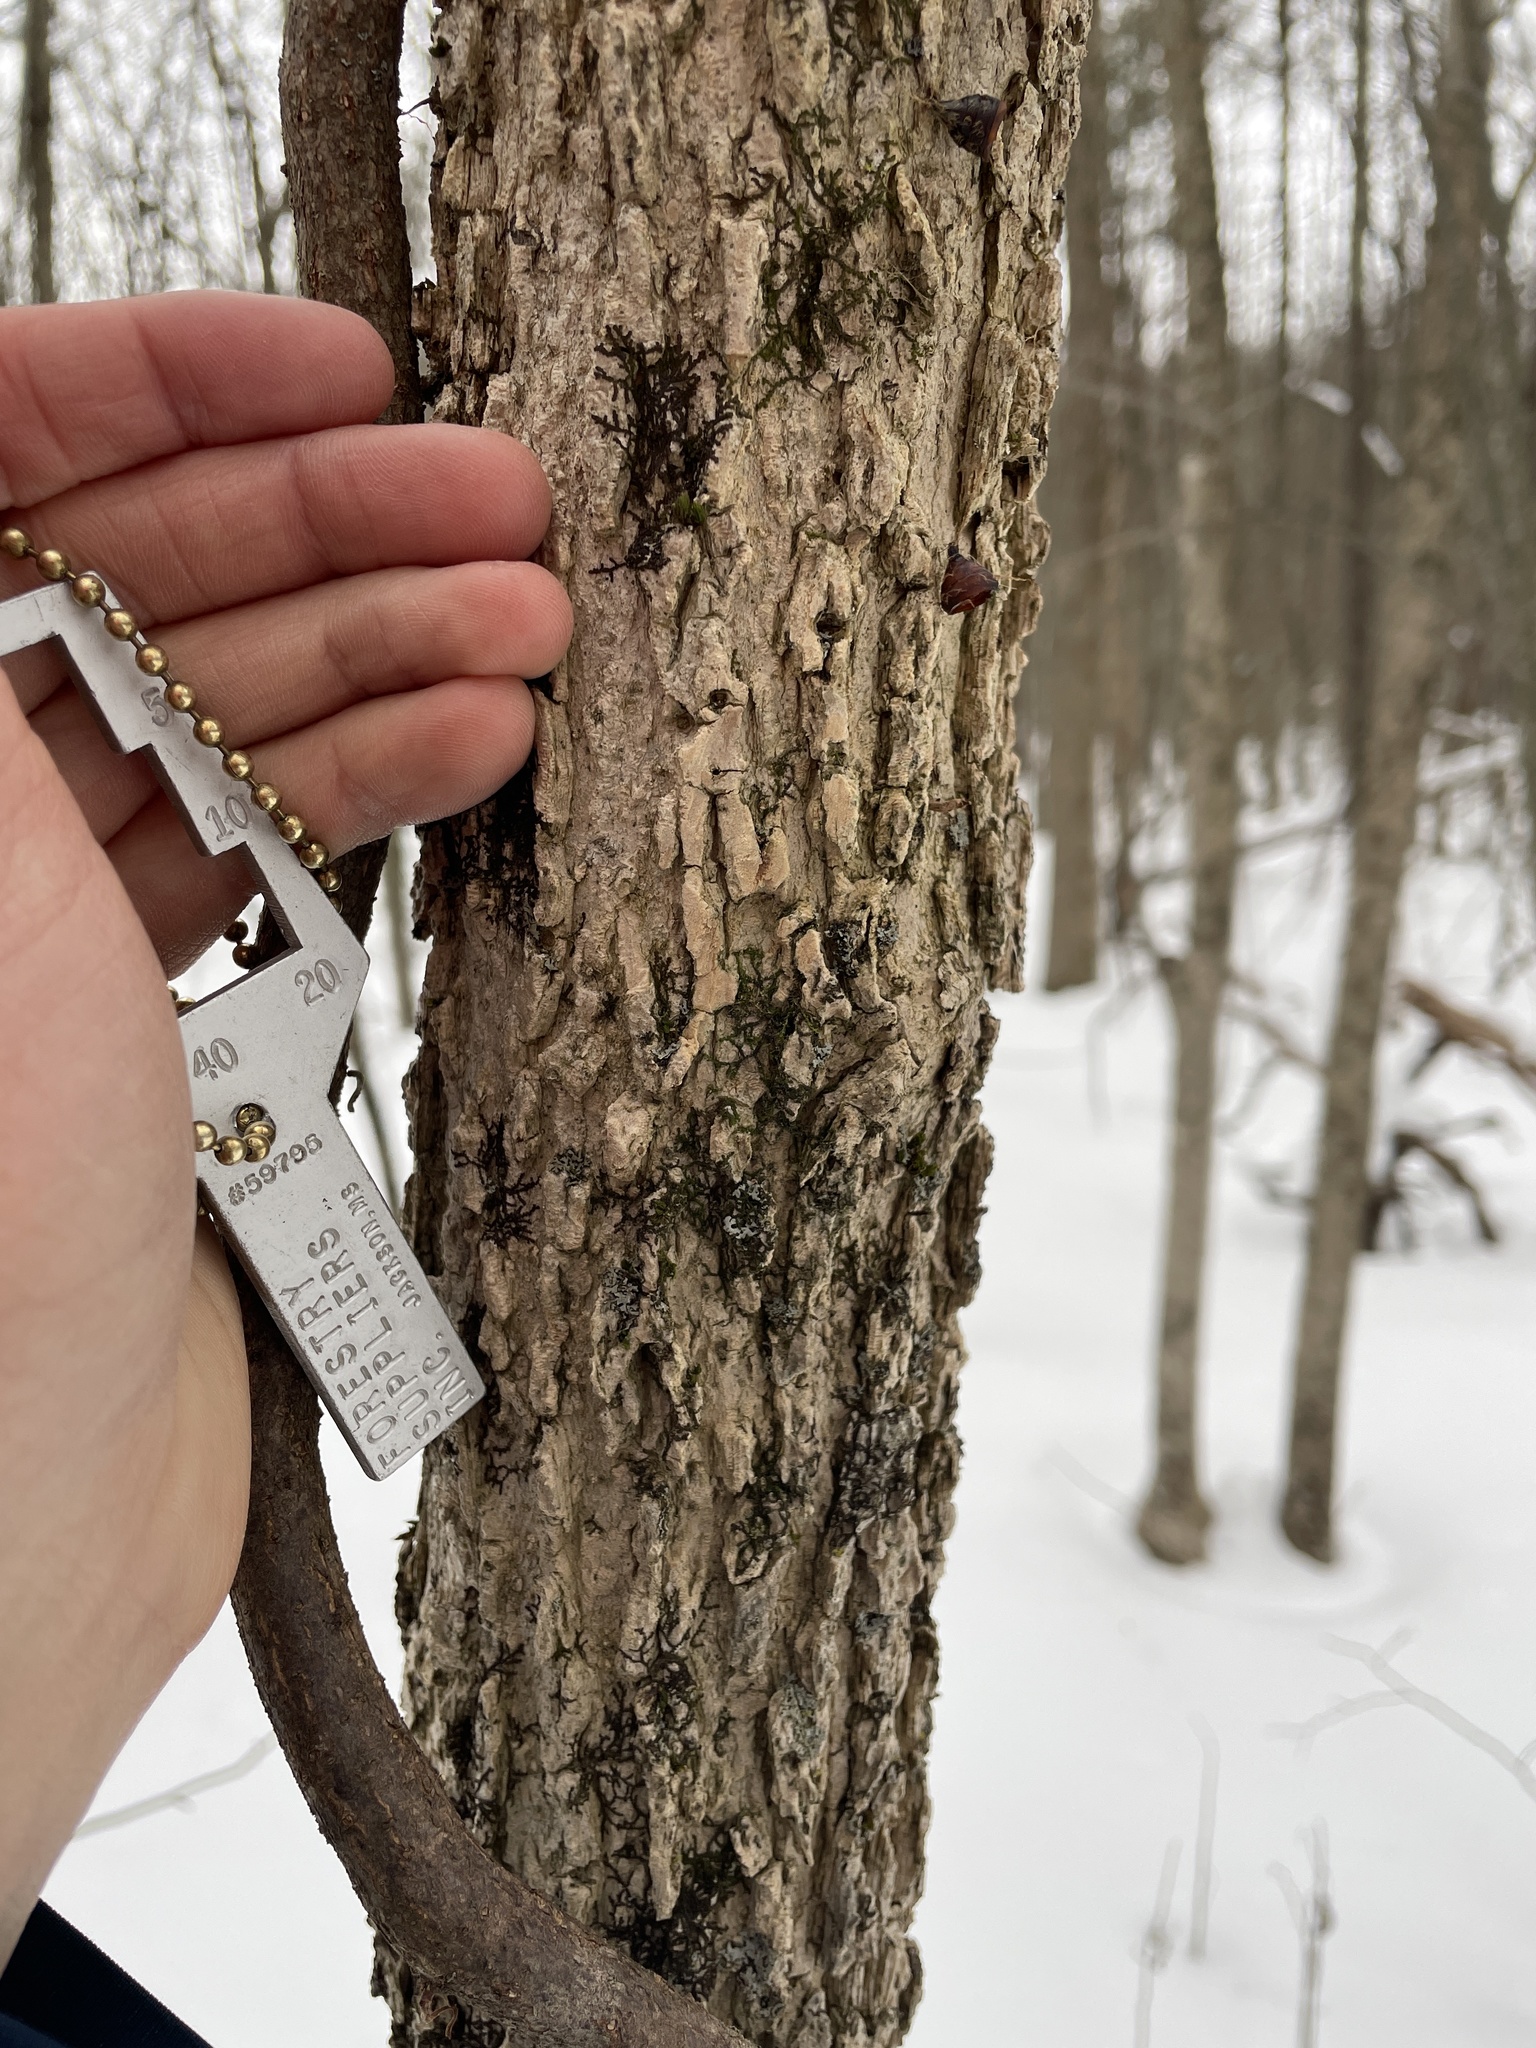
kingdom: Plantae
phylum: Tracheophyta
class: Magnoliopsida
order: Lamiales
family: Oleaceae
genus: Fraxinus
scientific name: Fraxinus nigra
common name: Black ash
